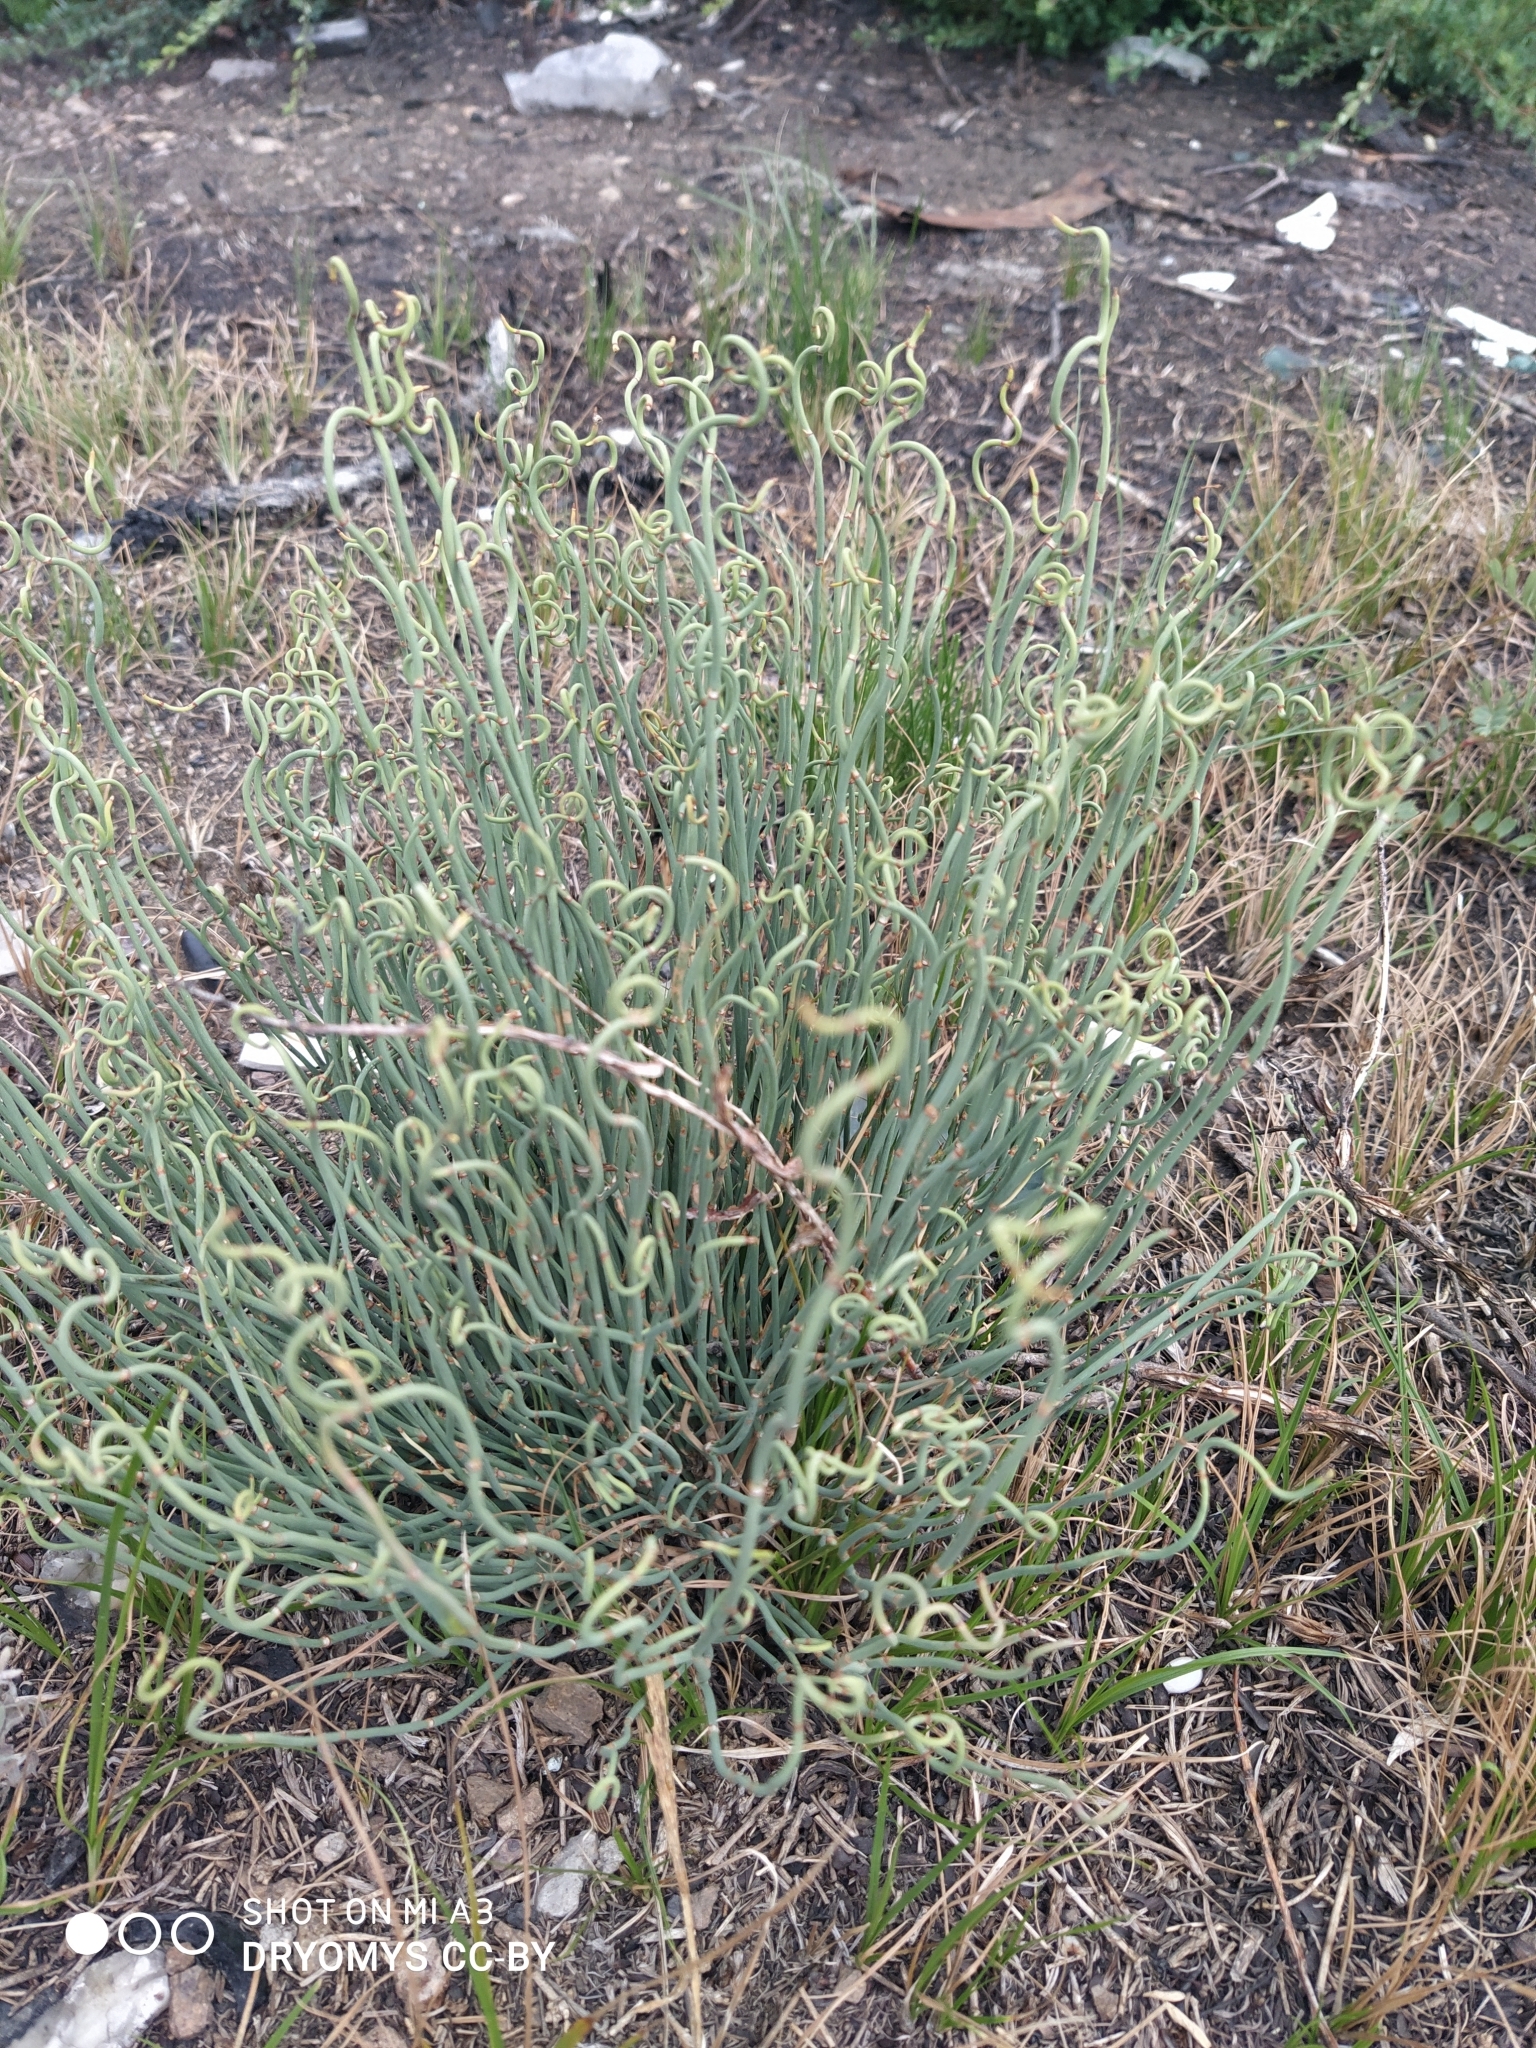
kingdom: Plantae
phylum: Tracheophyta
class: Gnetopsida
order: Ephedrales
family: Ephedraceae
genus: Ephedra
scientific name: Ephedra distachya
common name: Sea grape
